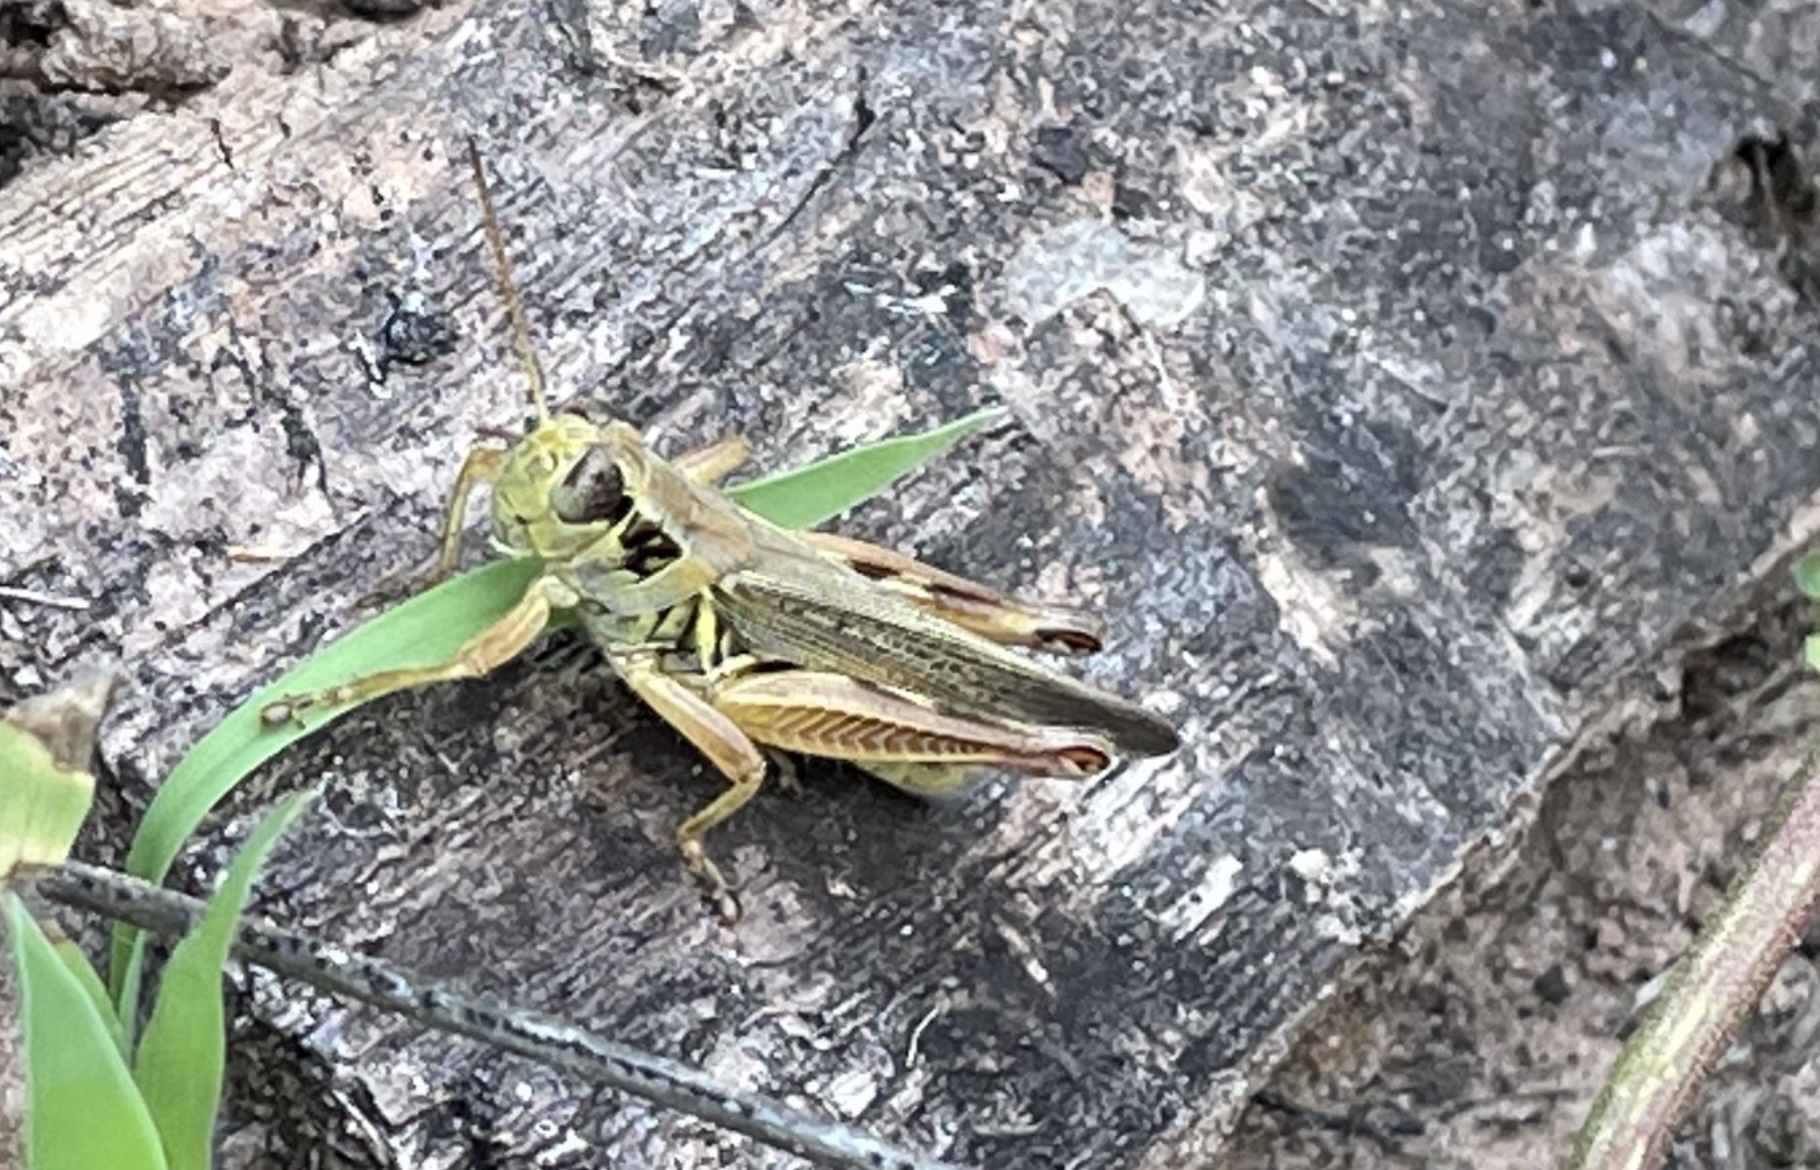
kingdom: Animalia
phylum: Arthropoda
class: Insecta
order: Orthoptera
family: Acrididae
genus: Melanoplus
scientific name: Melanoplus femurrubrum
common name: Red-legged grasshopper
